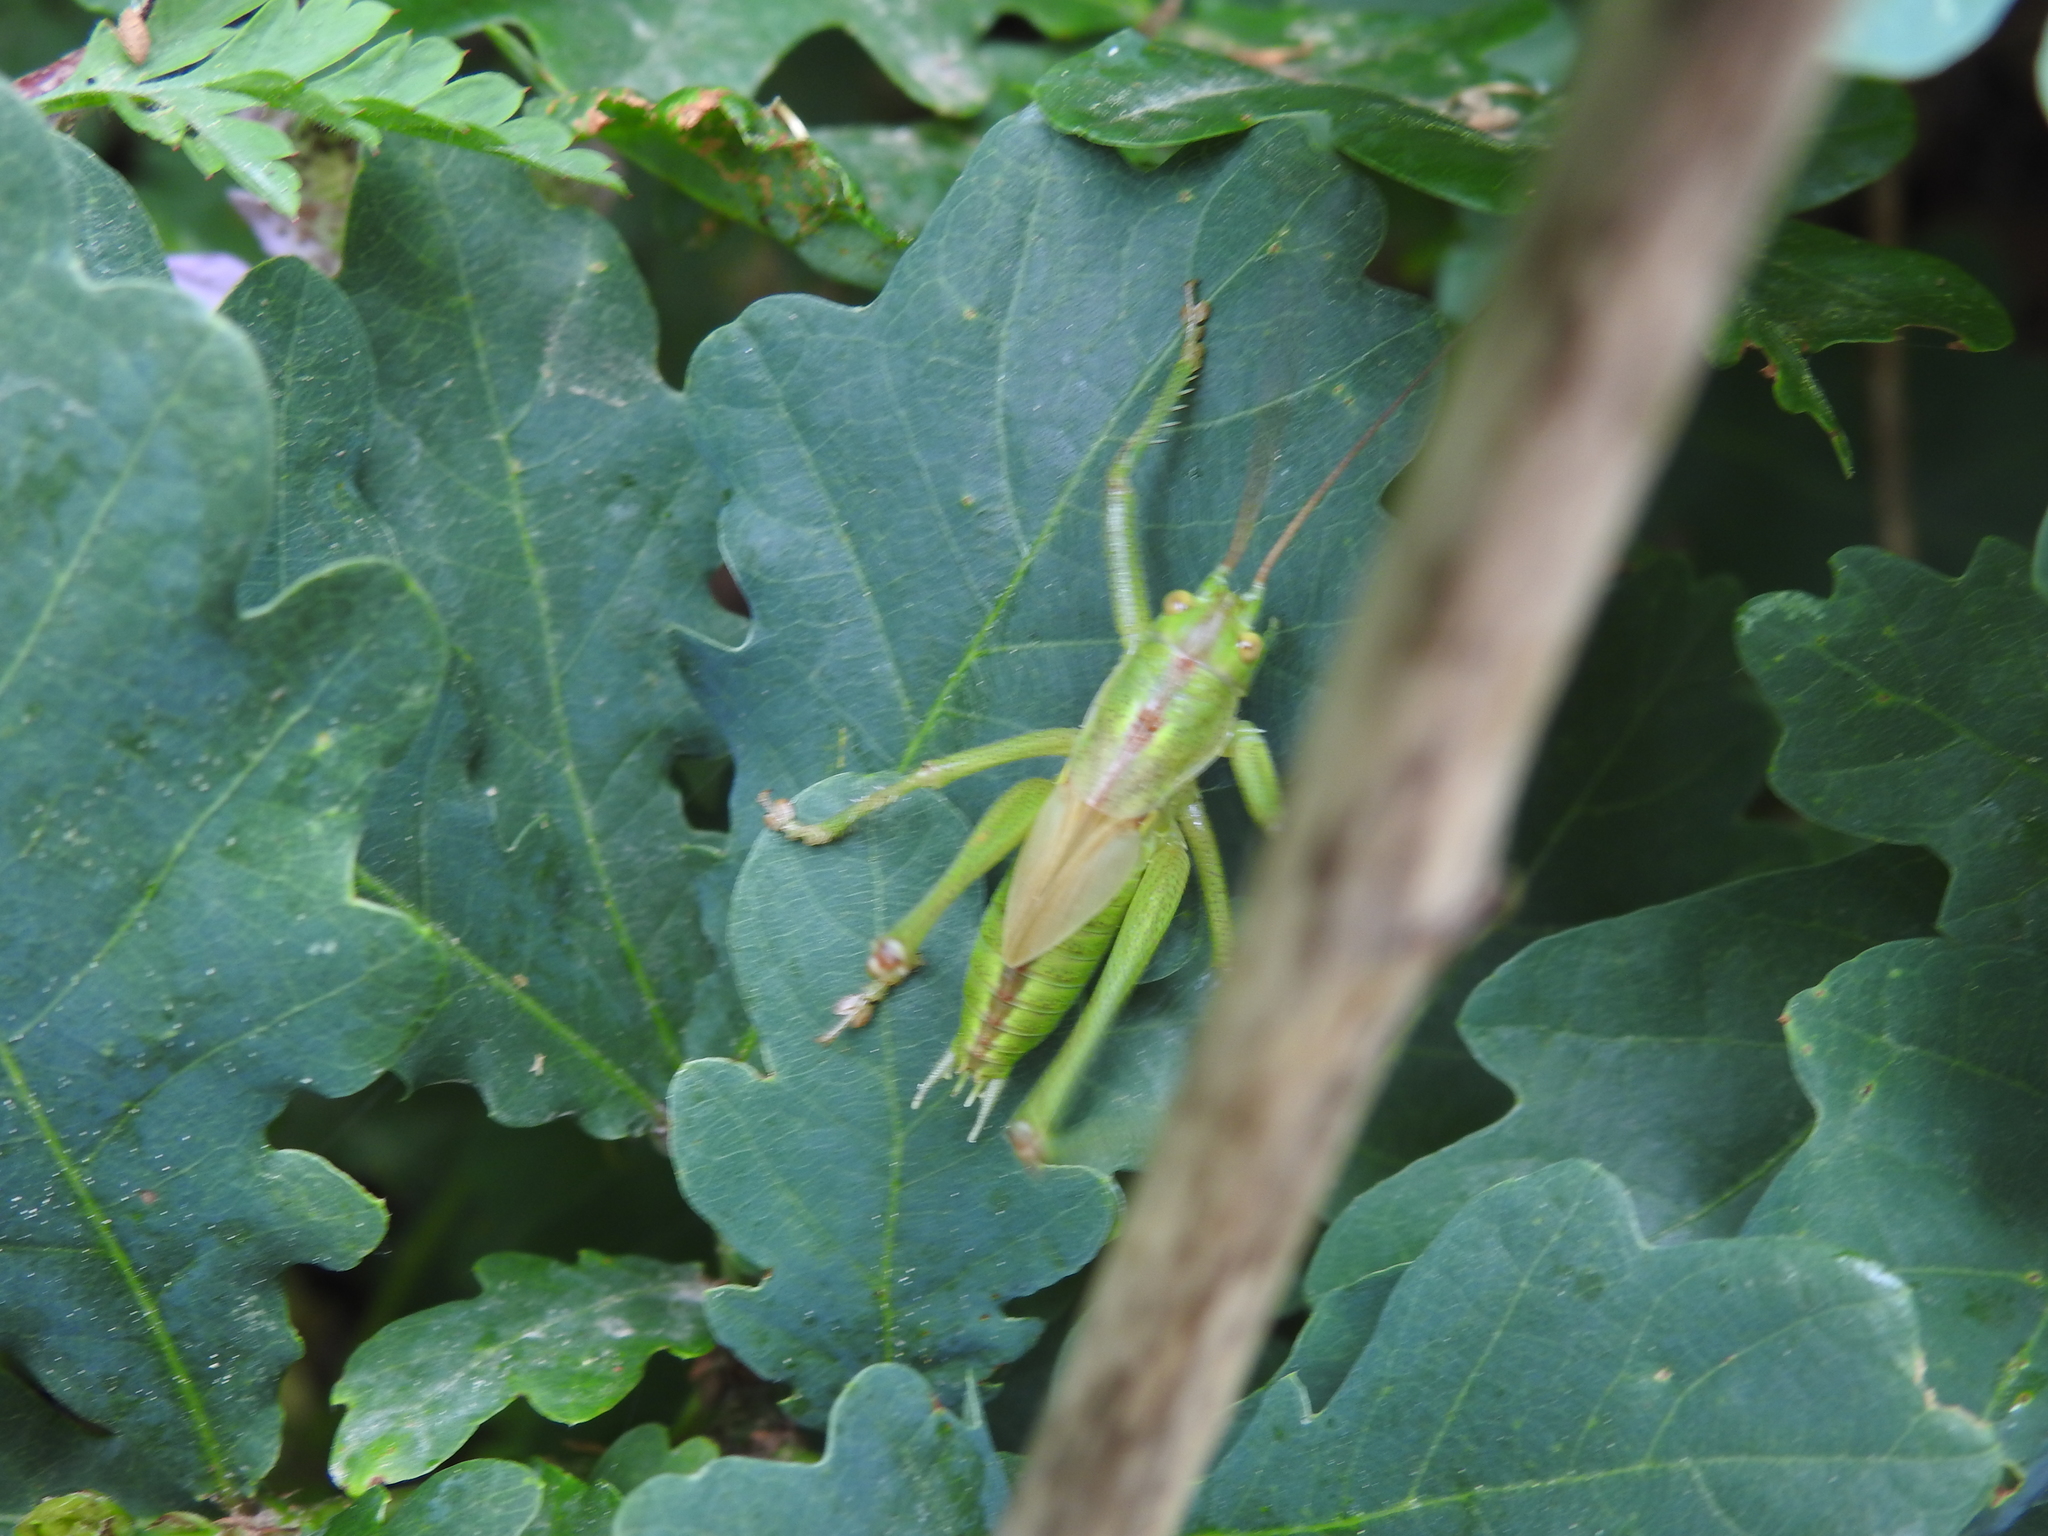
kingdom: Animalia
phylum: Arthropoda
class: Insecta
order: Orthoptera
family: Tettigoniidae
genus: Tettigonia
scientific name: Tettigonia viridissima
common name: Great green bush-cricket
